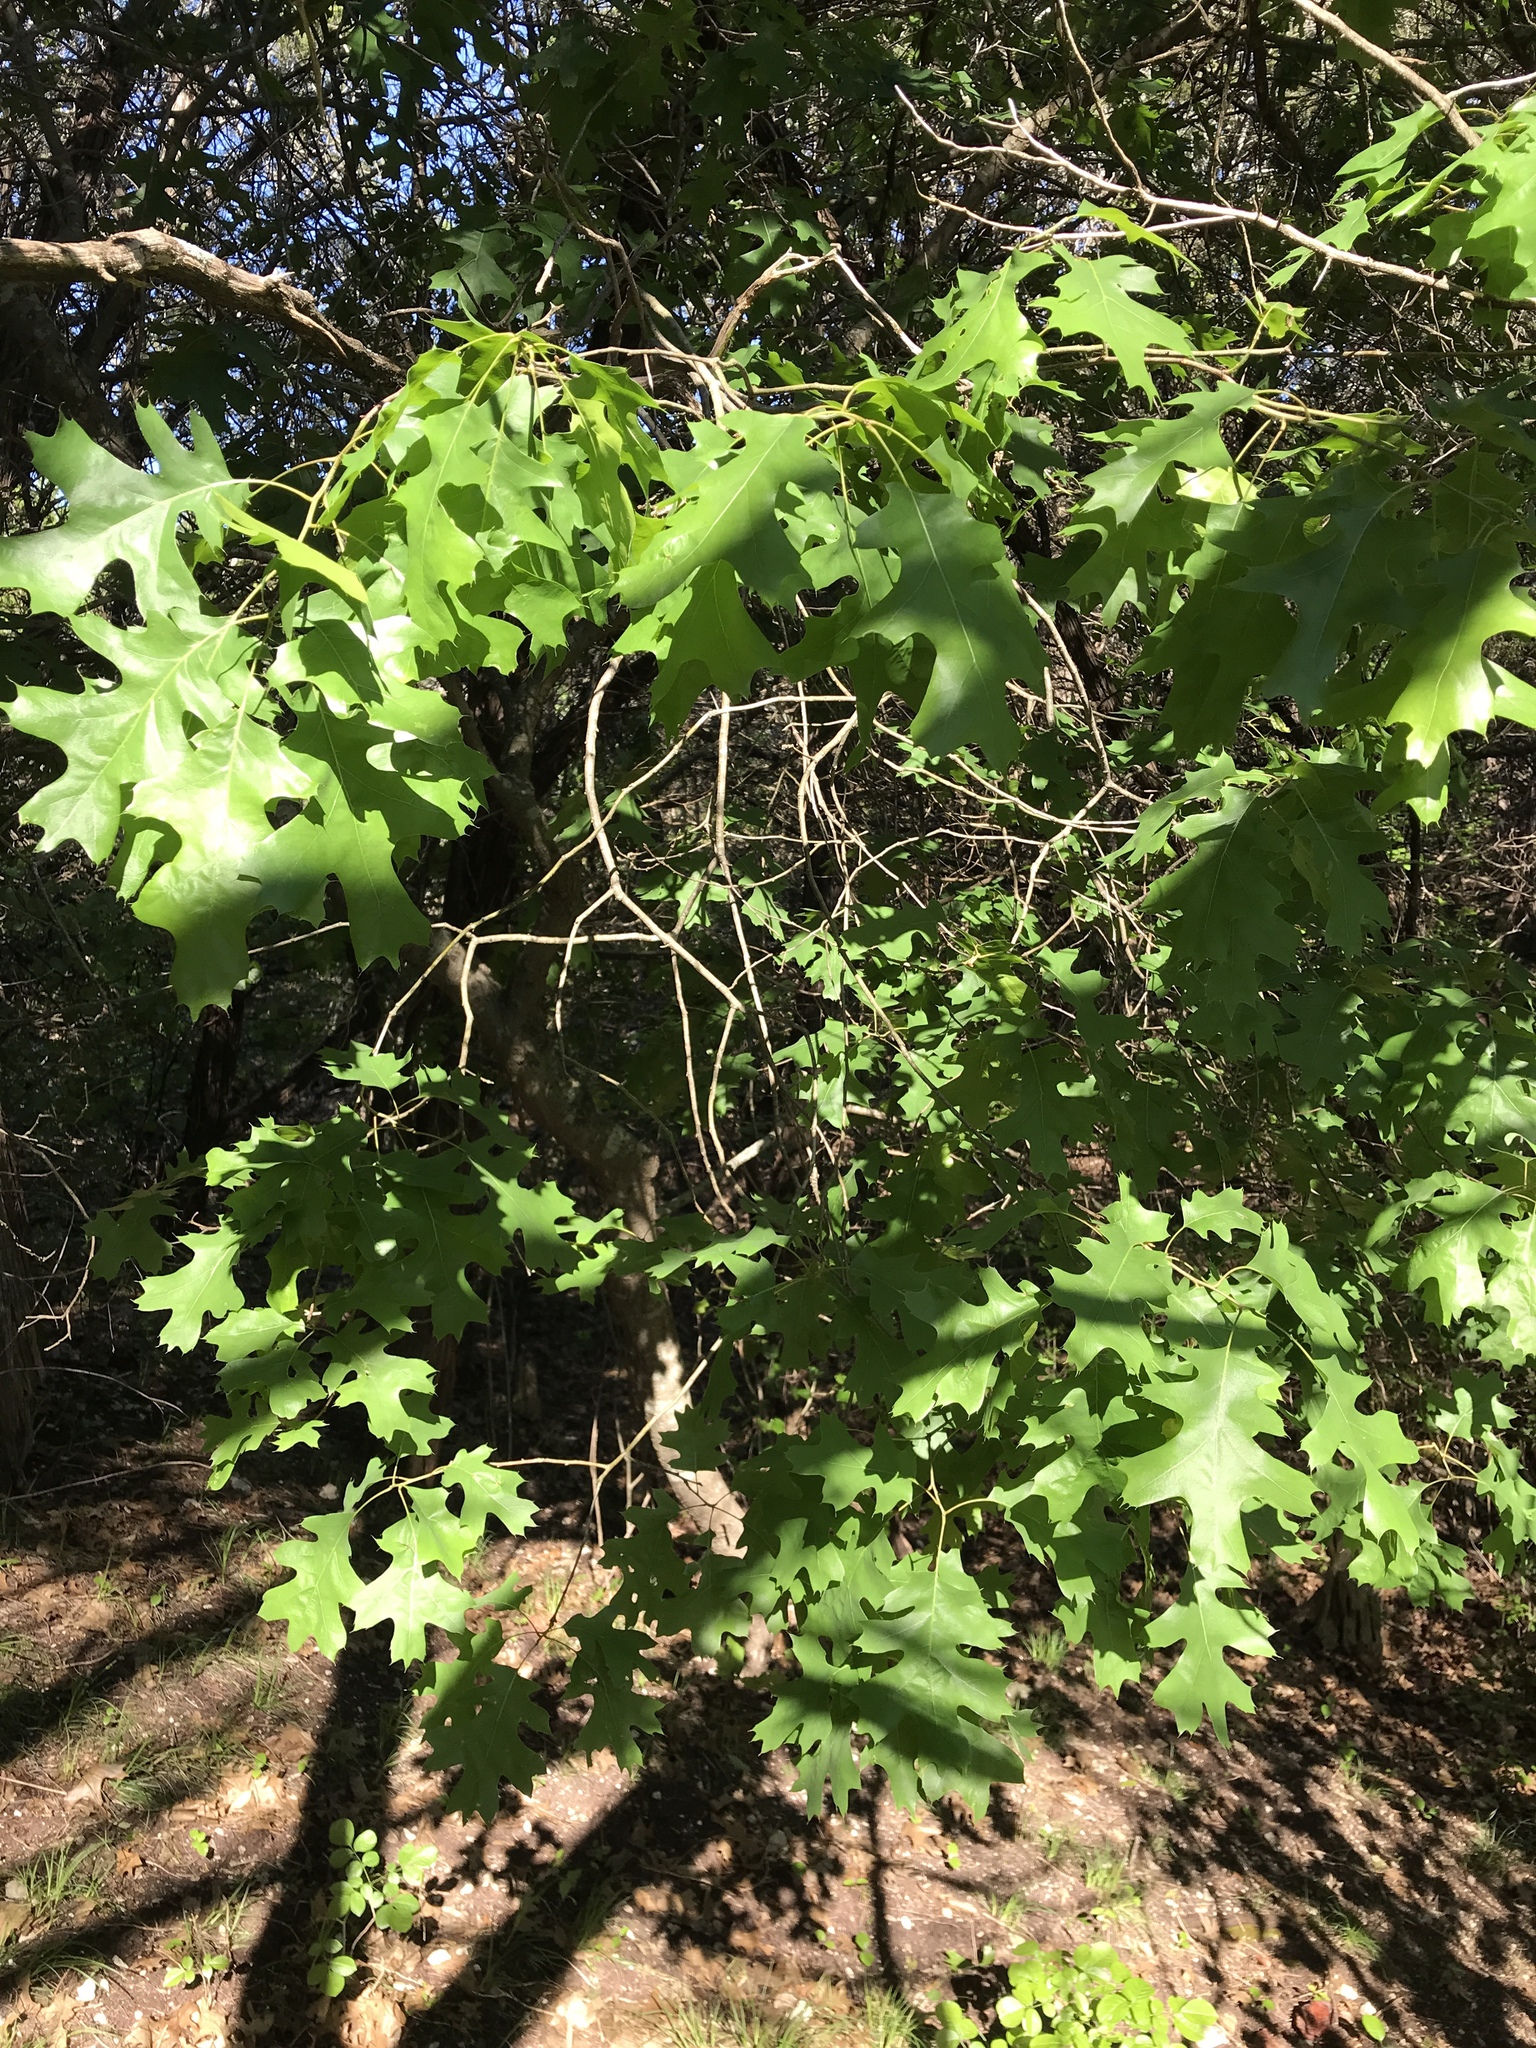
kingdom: Plantae
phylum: Tracheophyta
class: Magnoliopsida
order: Fagales
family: Fagaceae
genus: Quercus
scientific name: Quercus buckleyi
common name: Buckley oak
